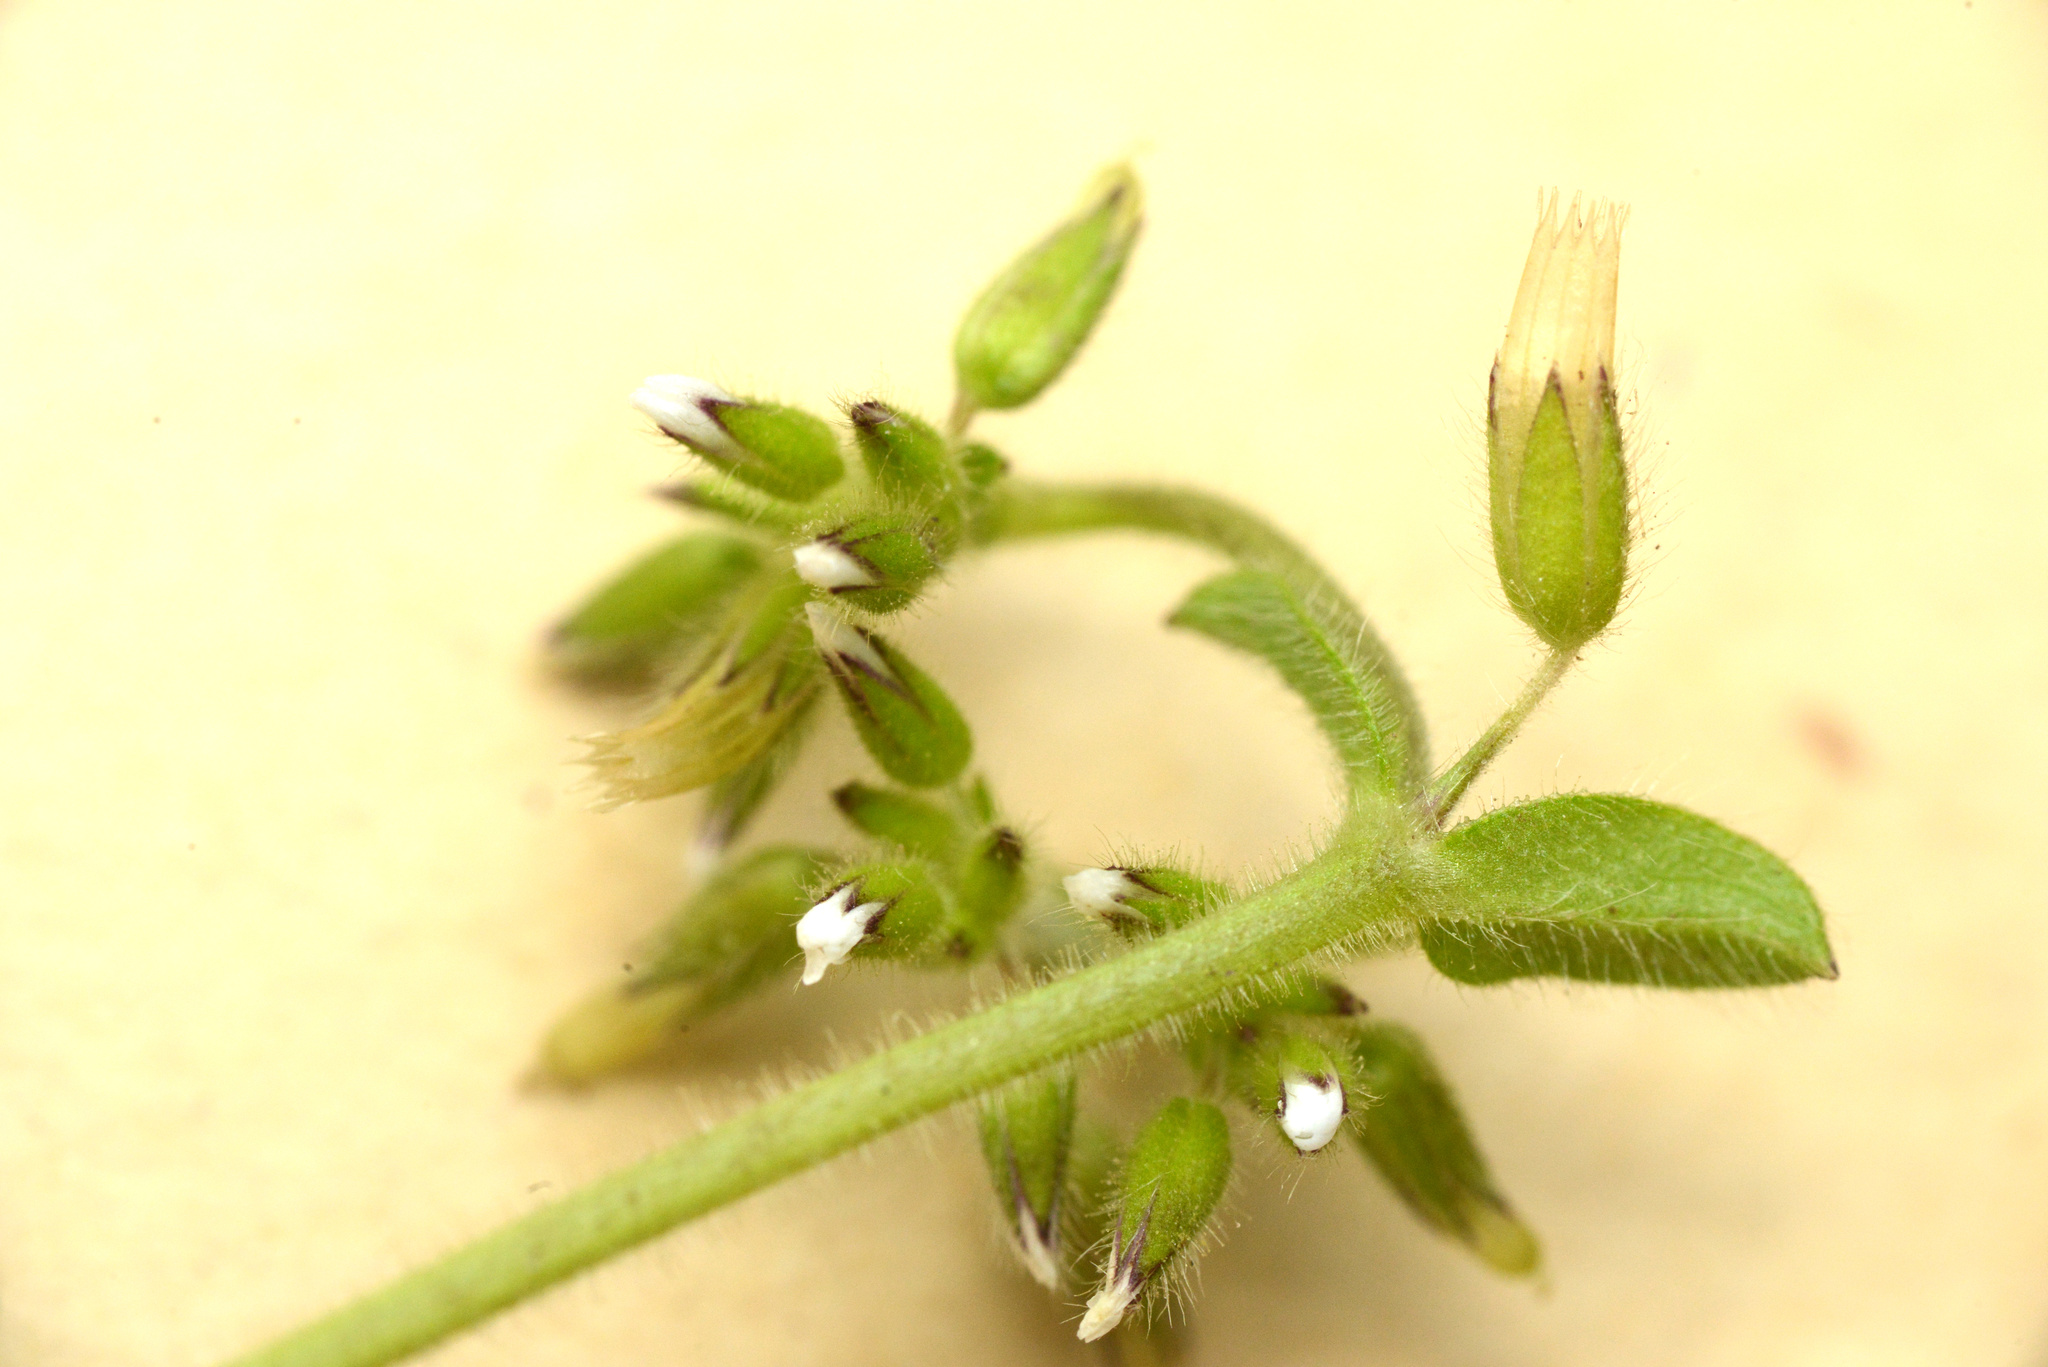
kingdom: Plantae
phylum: Tracheophyta
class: Magnoliopsida
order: Caryophyllales
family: Caryophyllaceae
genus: Cerastium
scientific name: Cerastium fontanum
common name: Common mouse-ear
